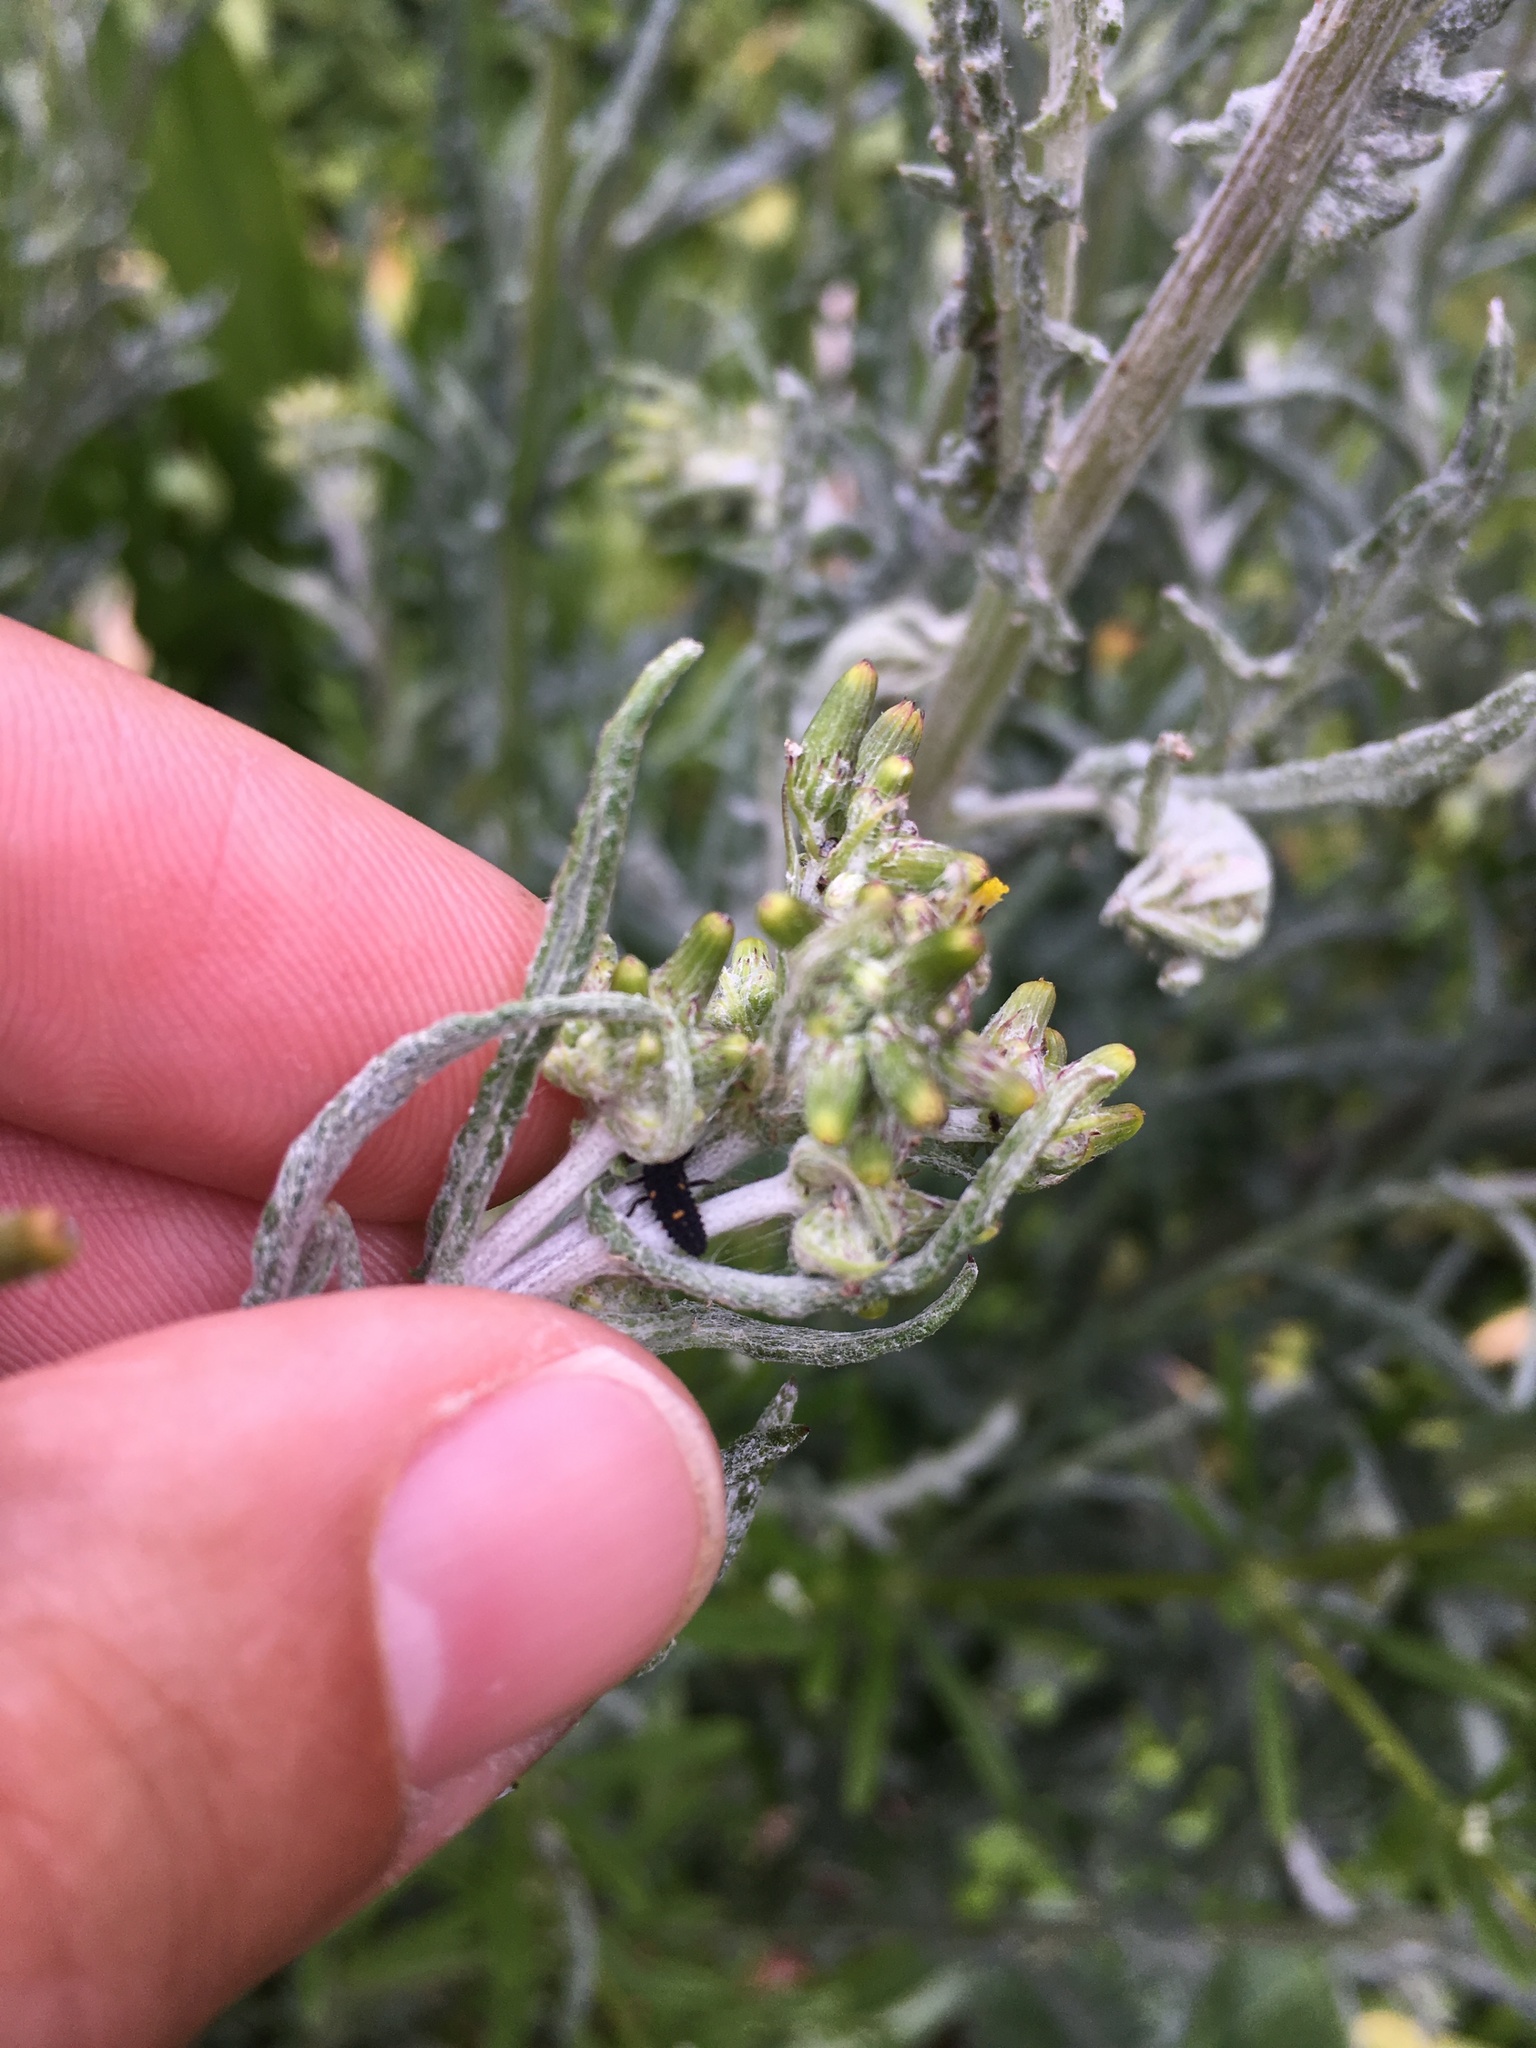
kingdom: Animalia
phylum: Arthropoda
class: Insecta
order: Coleoptera
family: Coccinellidae
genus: Adalia
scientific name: Adalia bipunctata
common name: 2-spot ladybird
